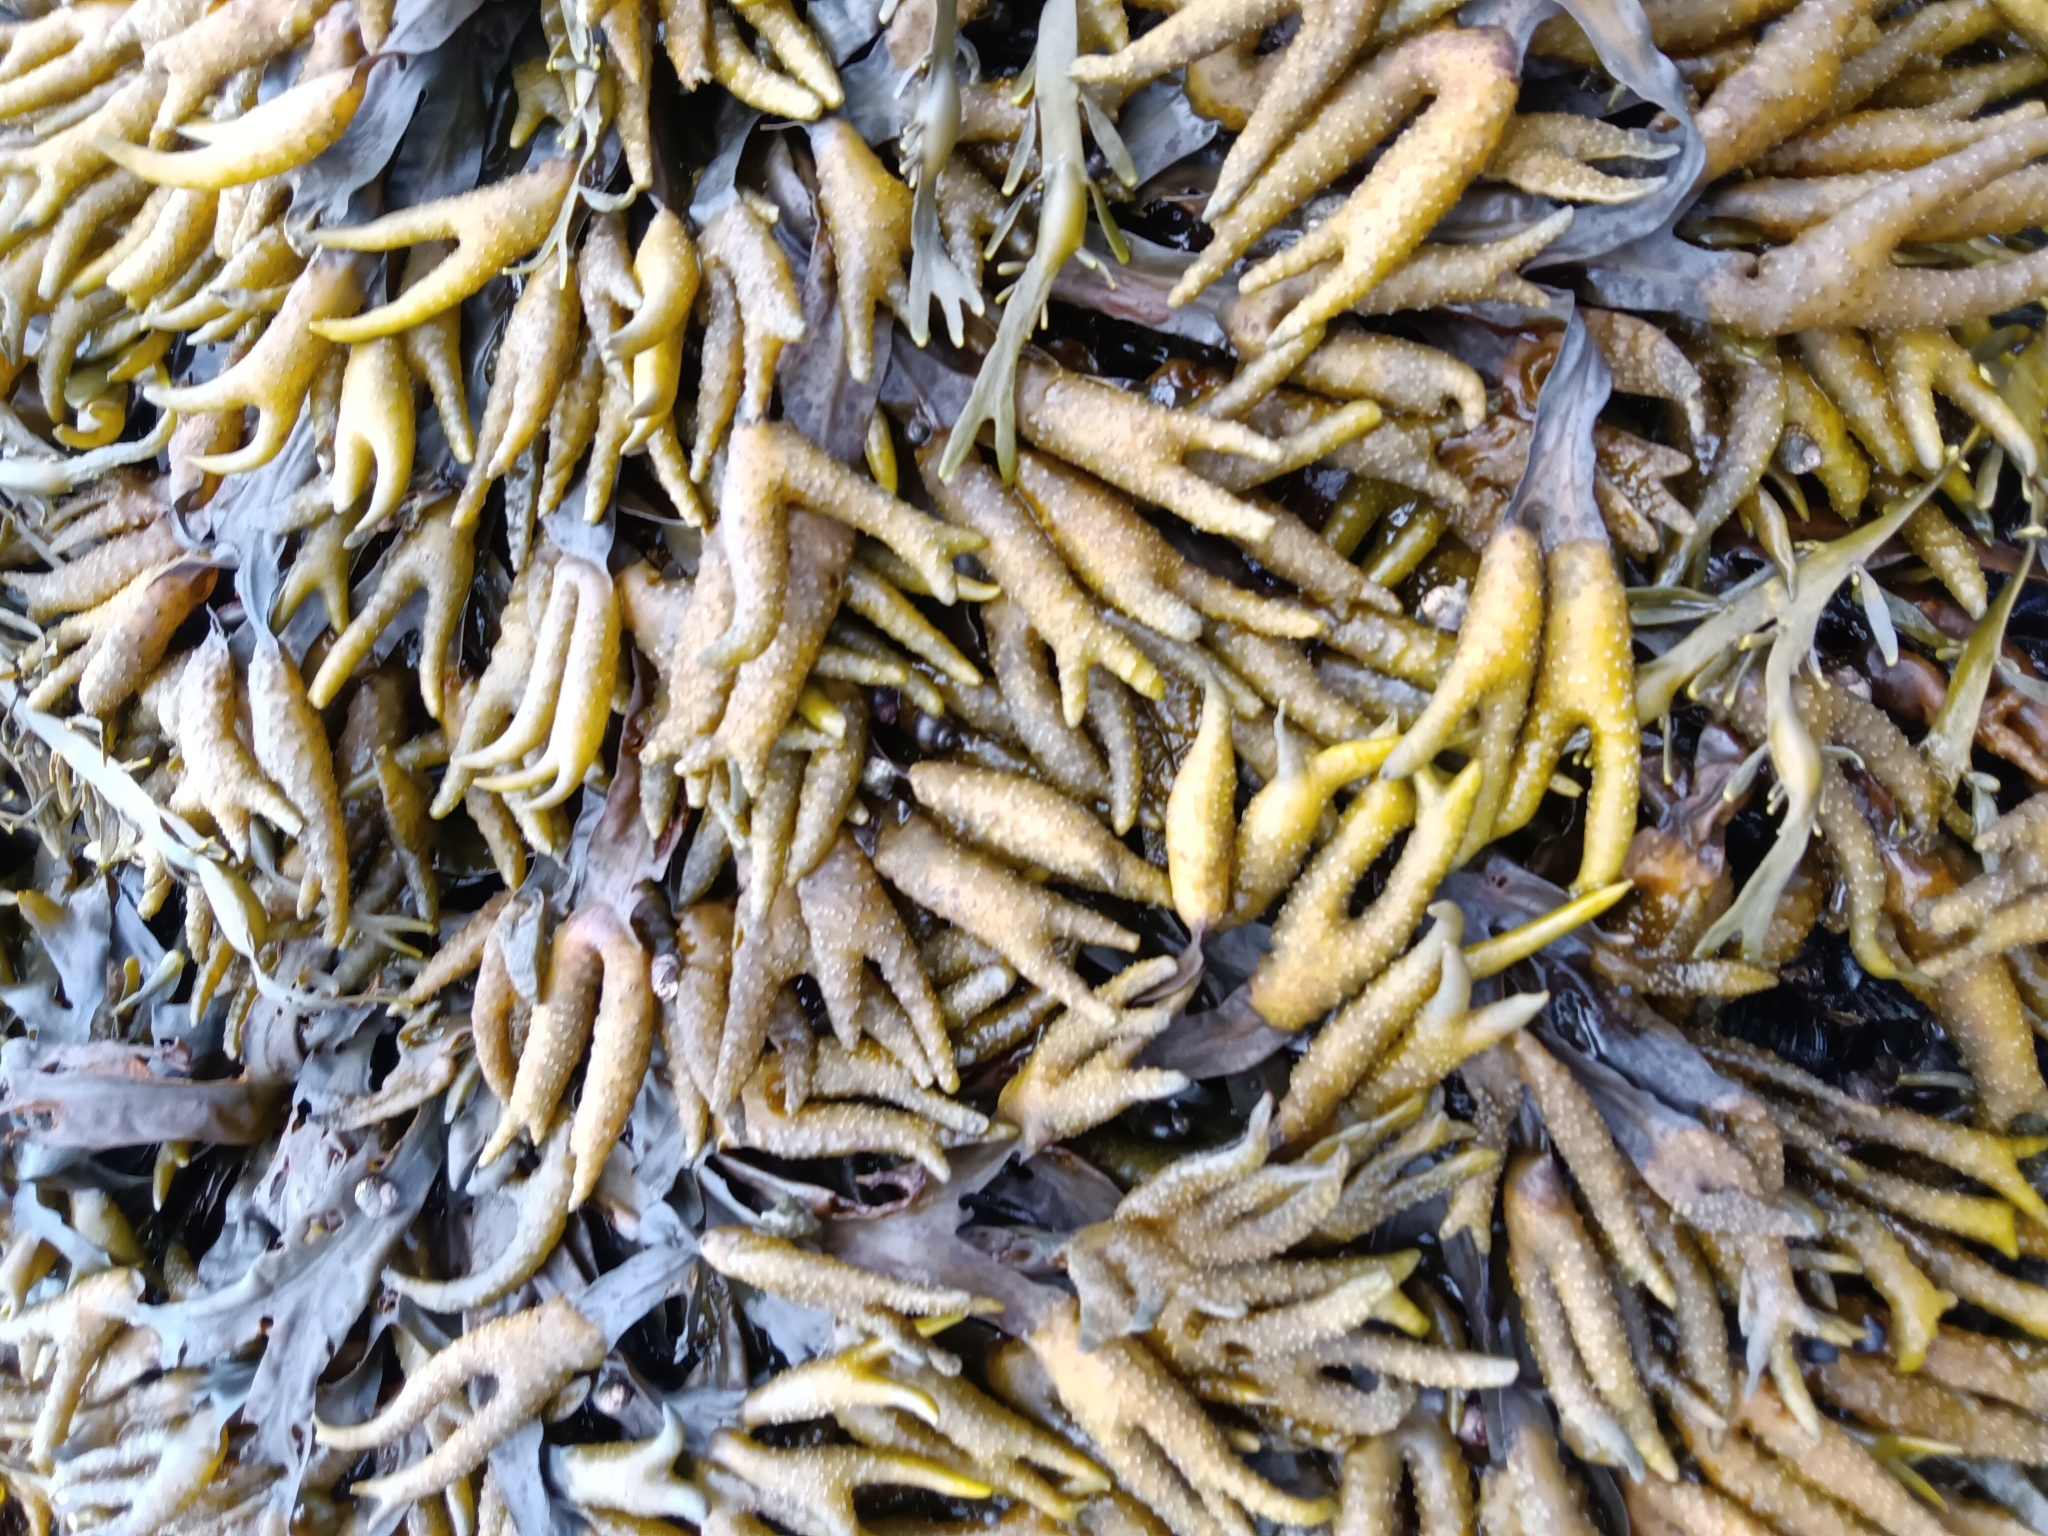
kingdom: Chromista
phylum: Ochrophyta
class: Phaeophyceae
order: Fucales
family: Fucaceae
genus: Fucus
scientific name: Fucus distichus
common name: Rockweed
